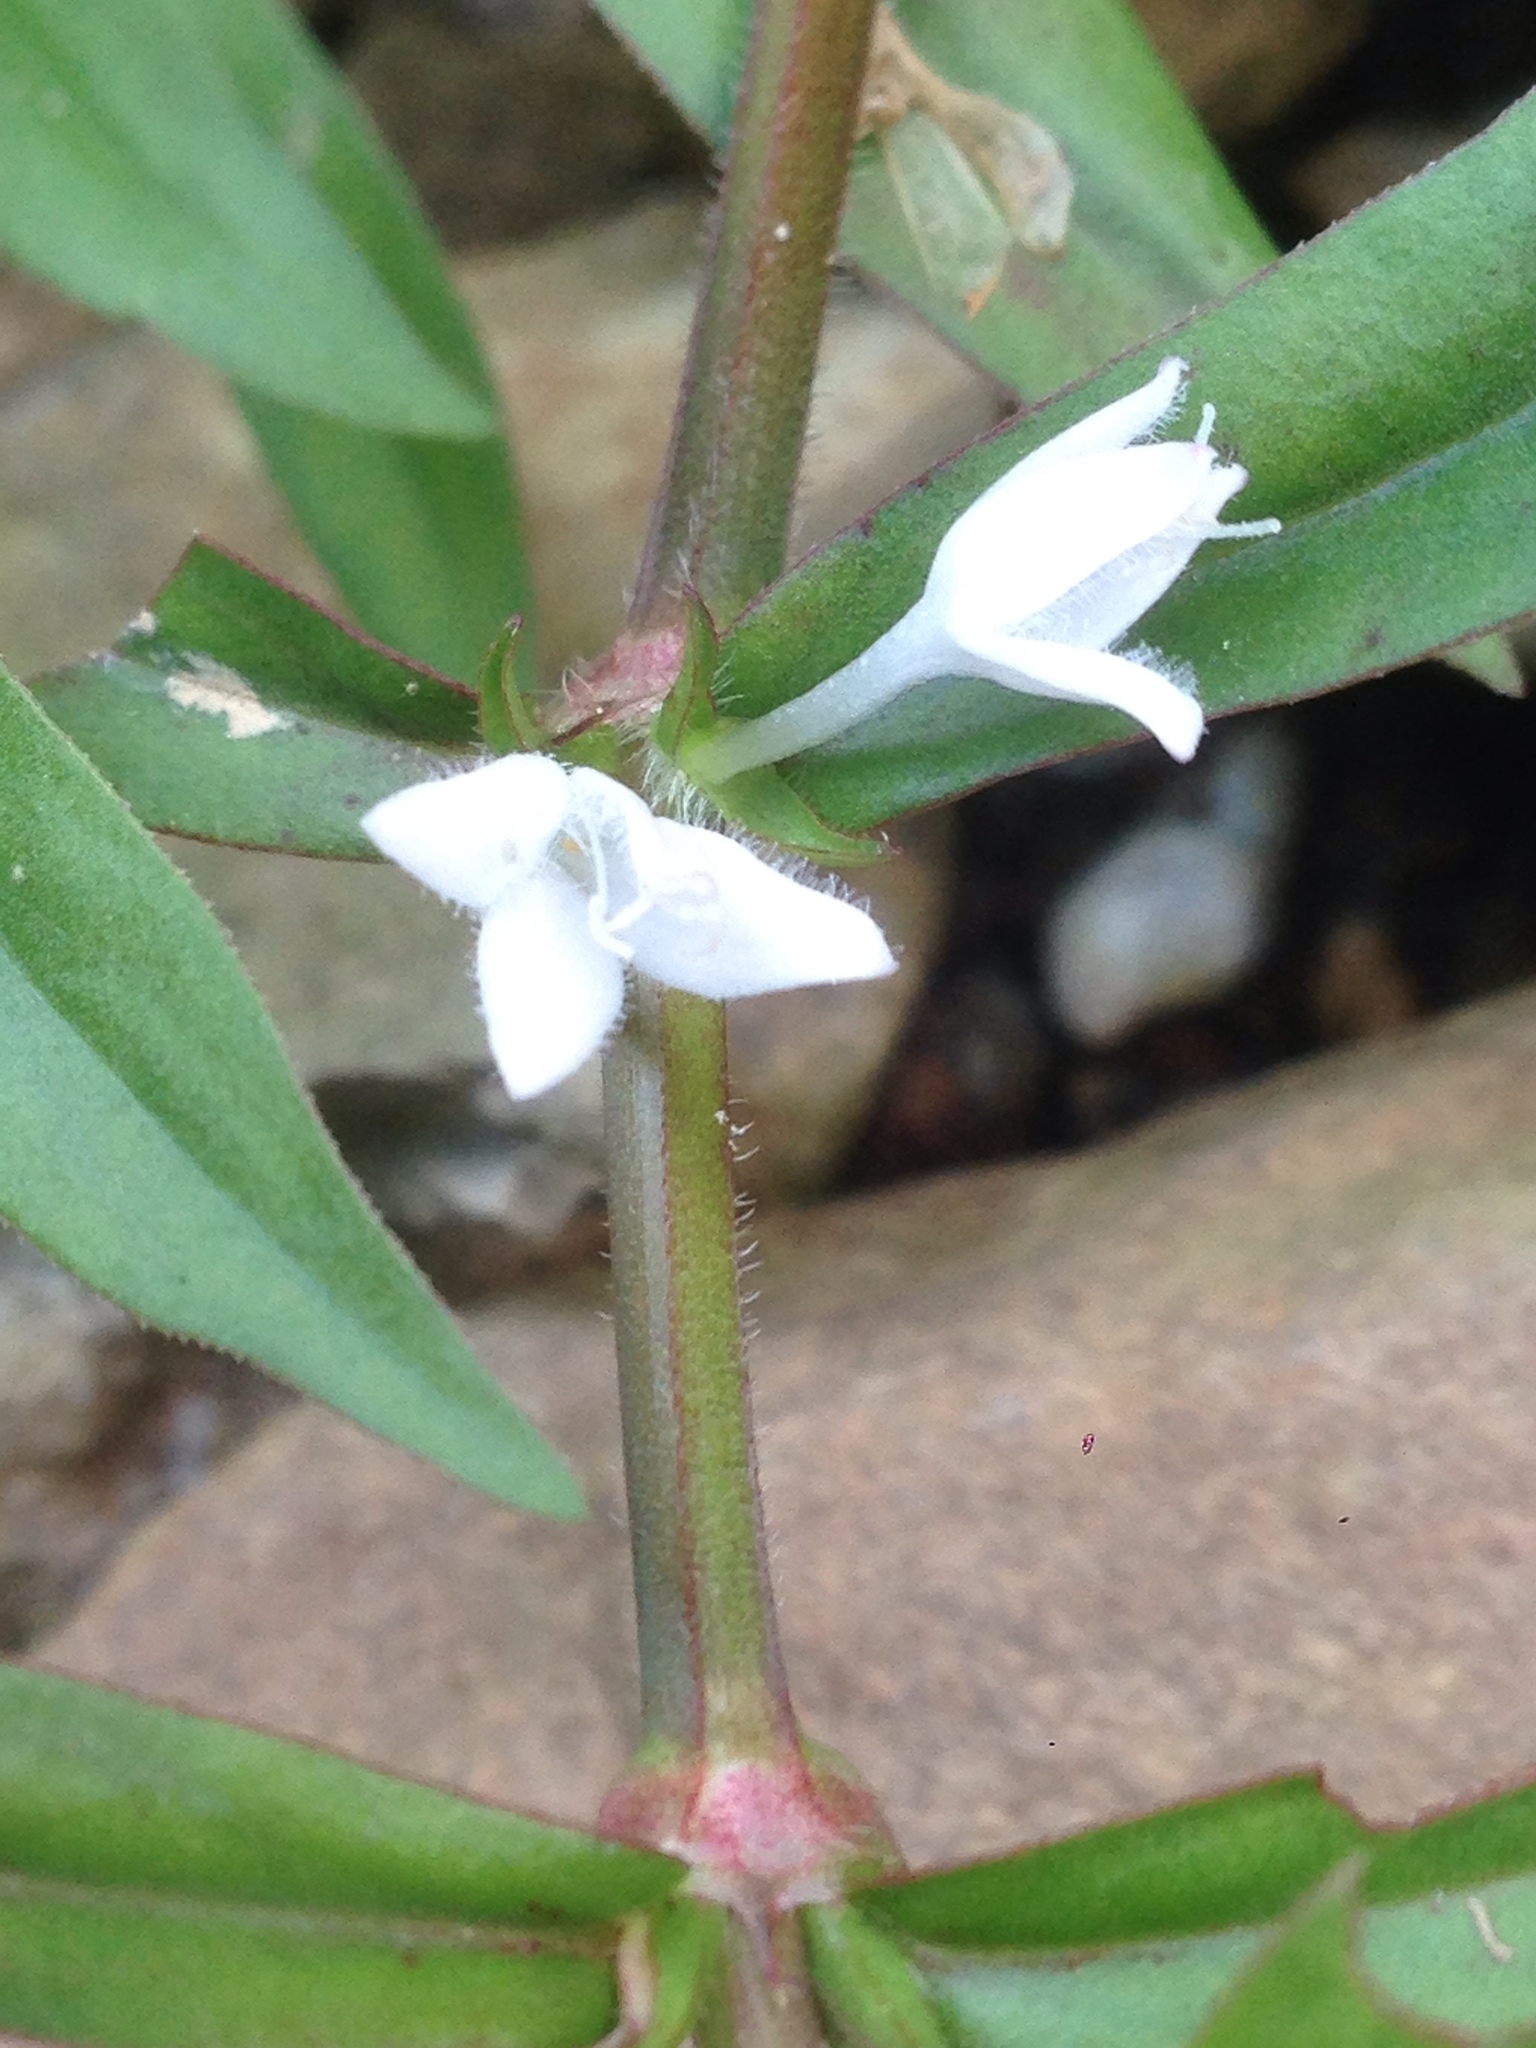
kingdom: Plantae
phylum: Tracheophyta
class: Magnoliopsida
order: Gentianales
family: Rubiaceae
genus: Diodia
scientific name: Diodia virginiana
